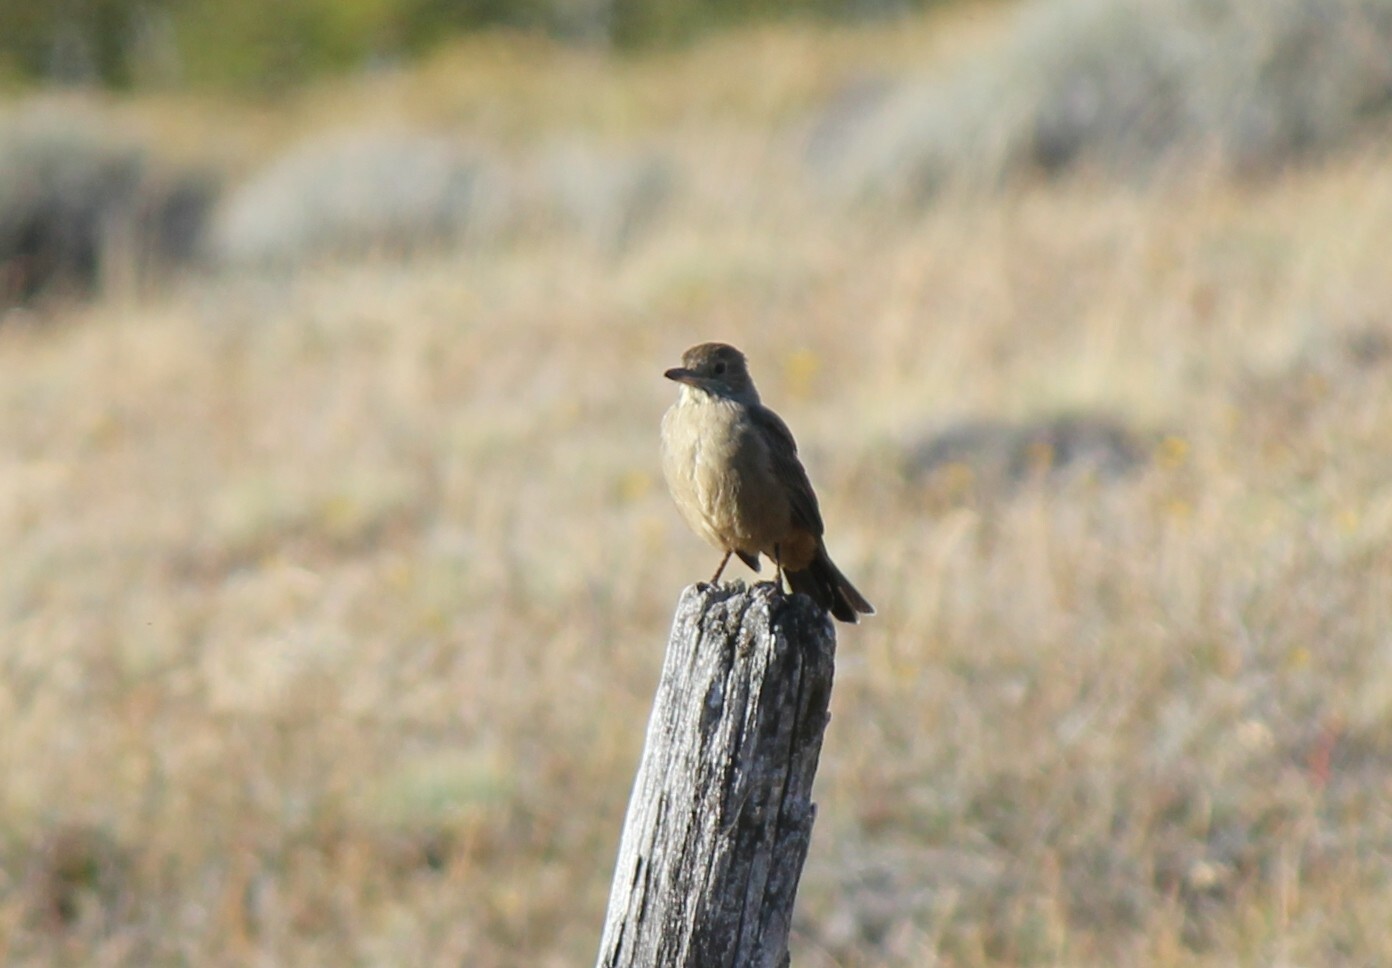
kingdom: Animalia
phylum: Chordata
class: Aves
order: Passeriformes
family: Tyrannidae
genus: Agriornis
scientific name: Agriornis lividus
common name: Great shrike-tyrant
